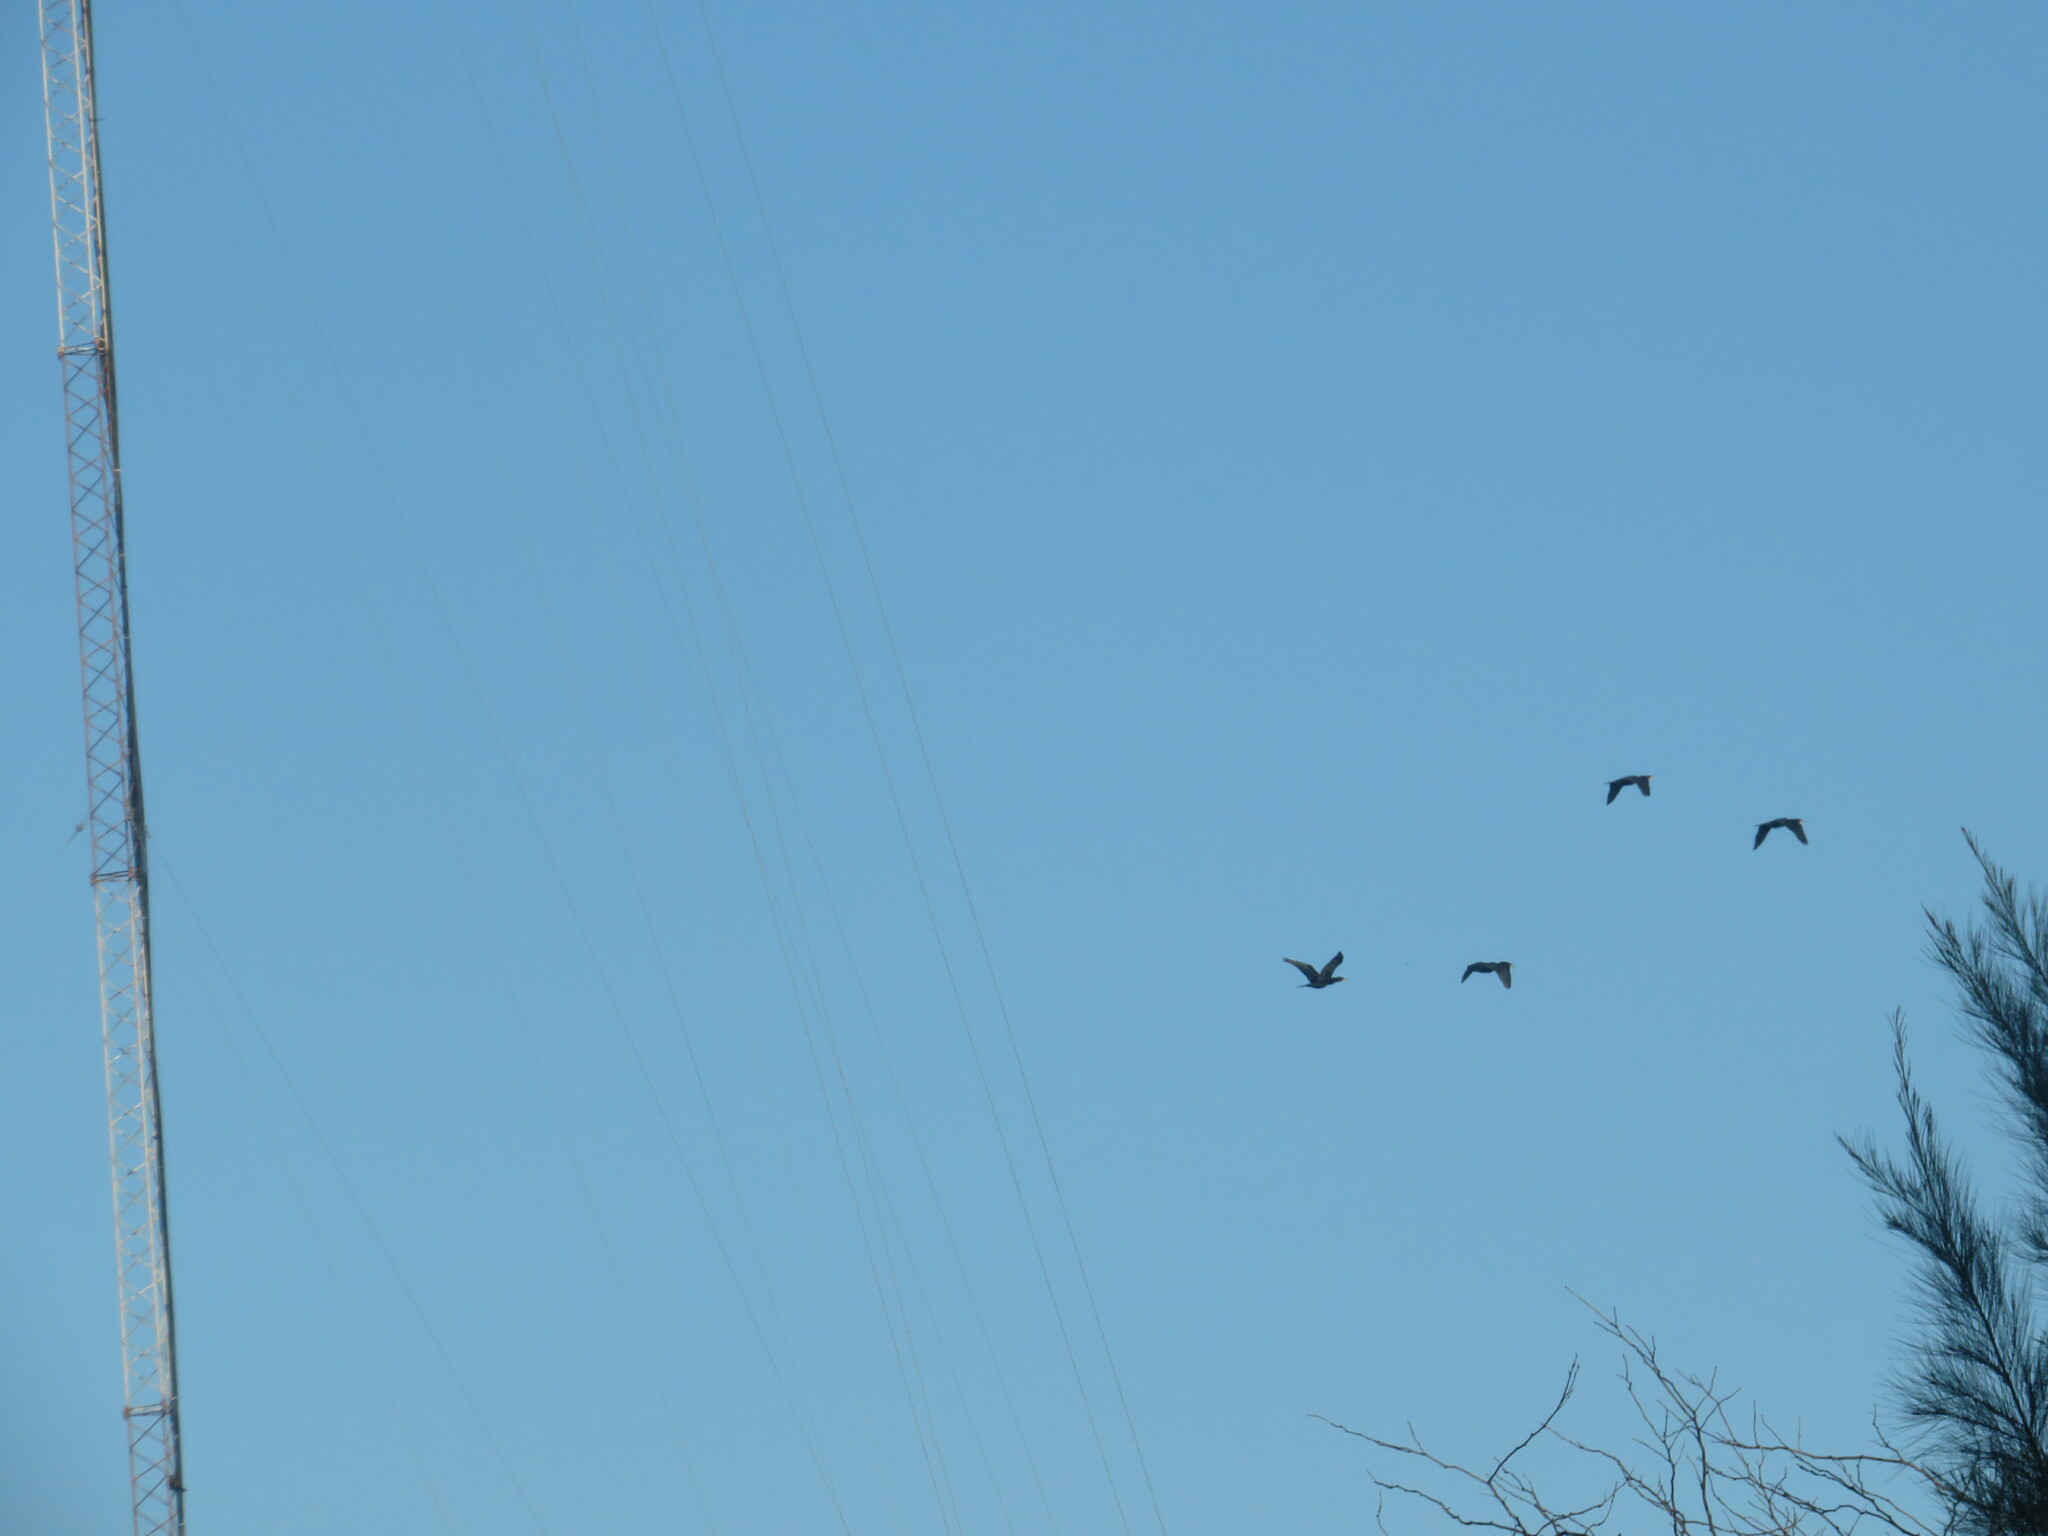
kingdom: Animalia
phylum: Chordata
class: Aves
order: Suliformes
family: Phalacrocoracidae
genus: Phalacrocorax
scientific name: Phalacrocorax brasilianus
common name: Neotropic cormorant
